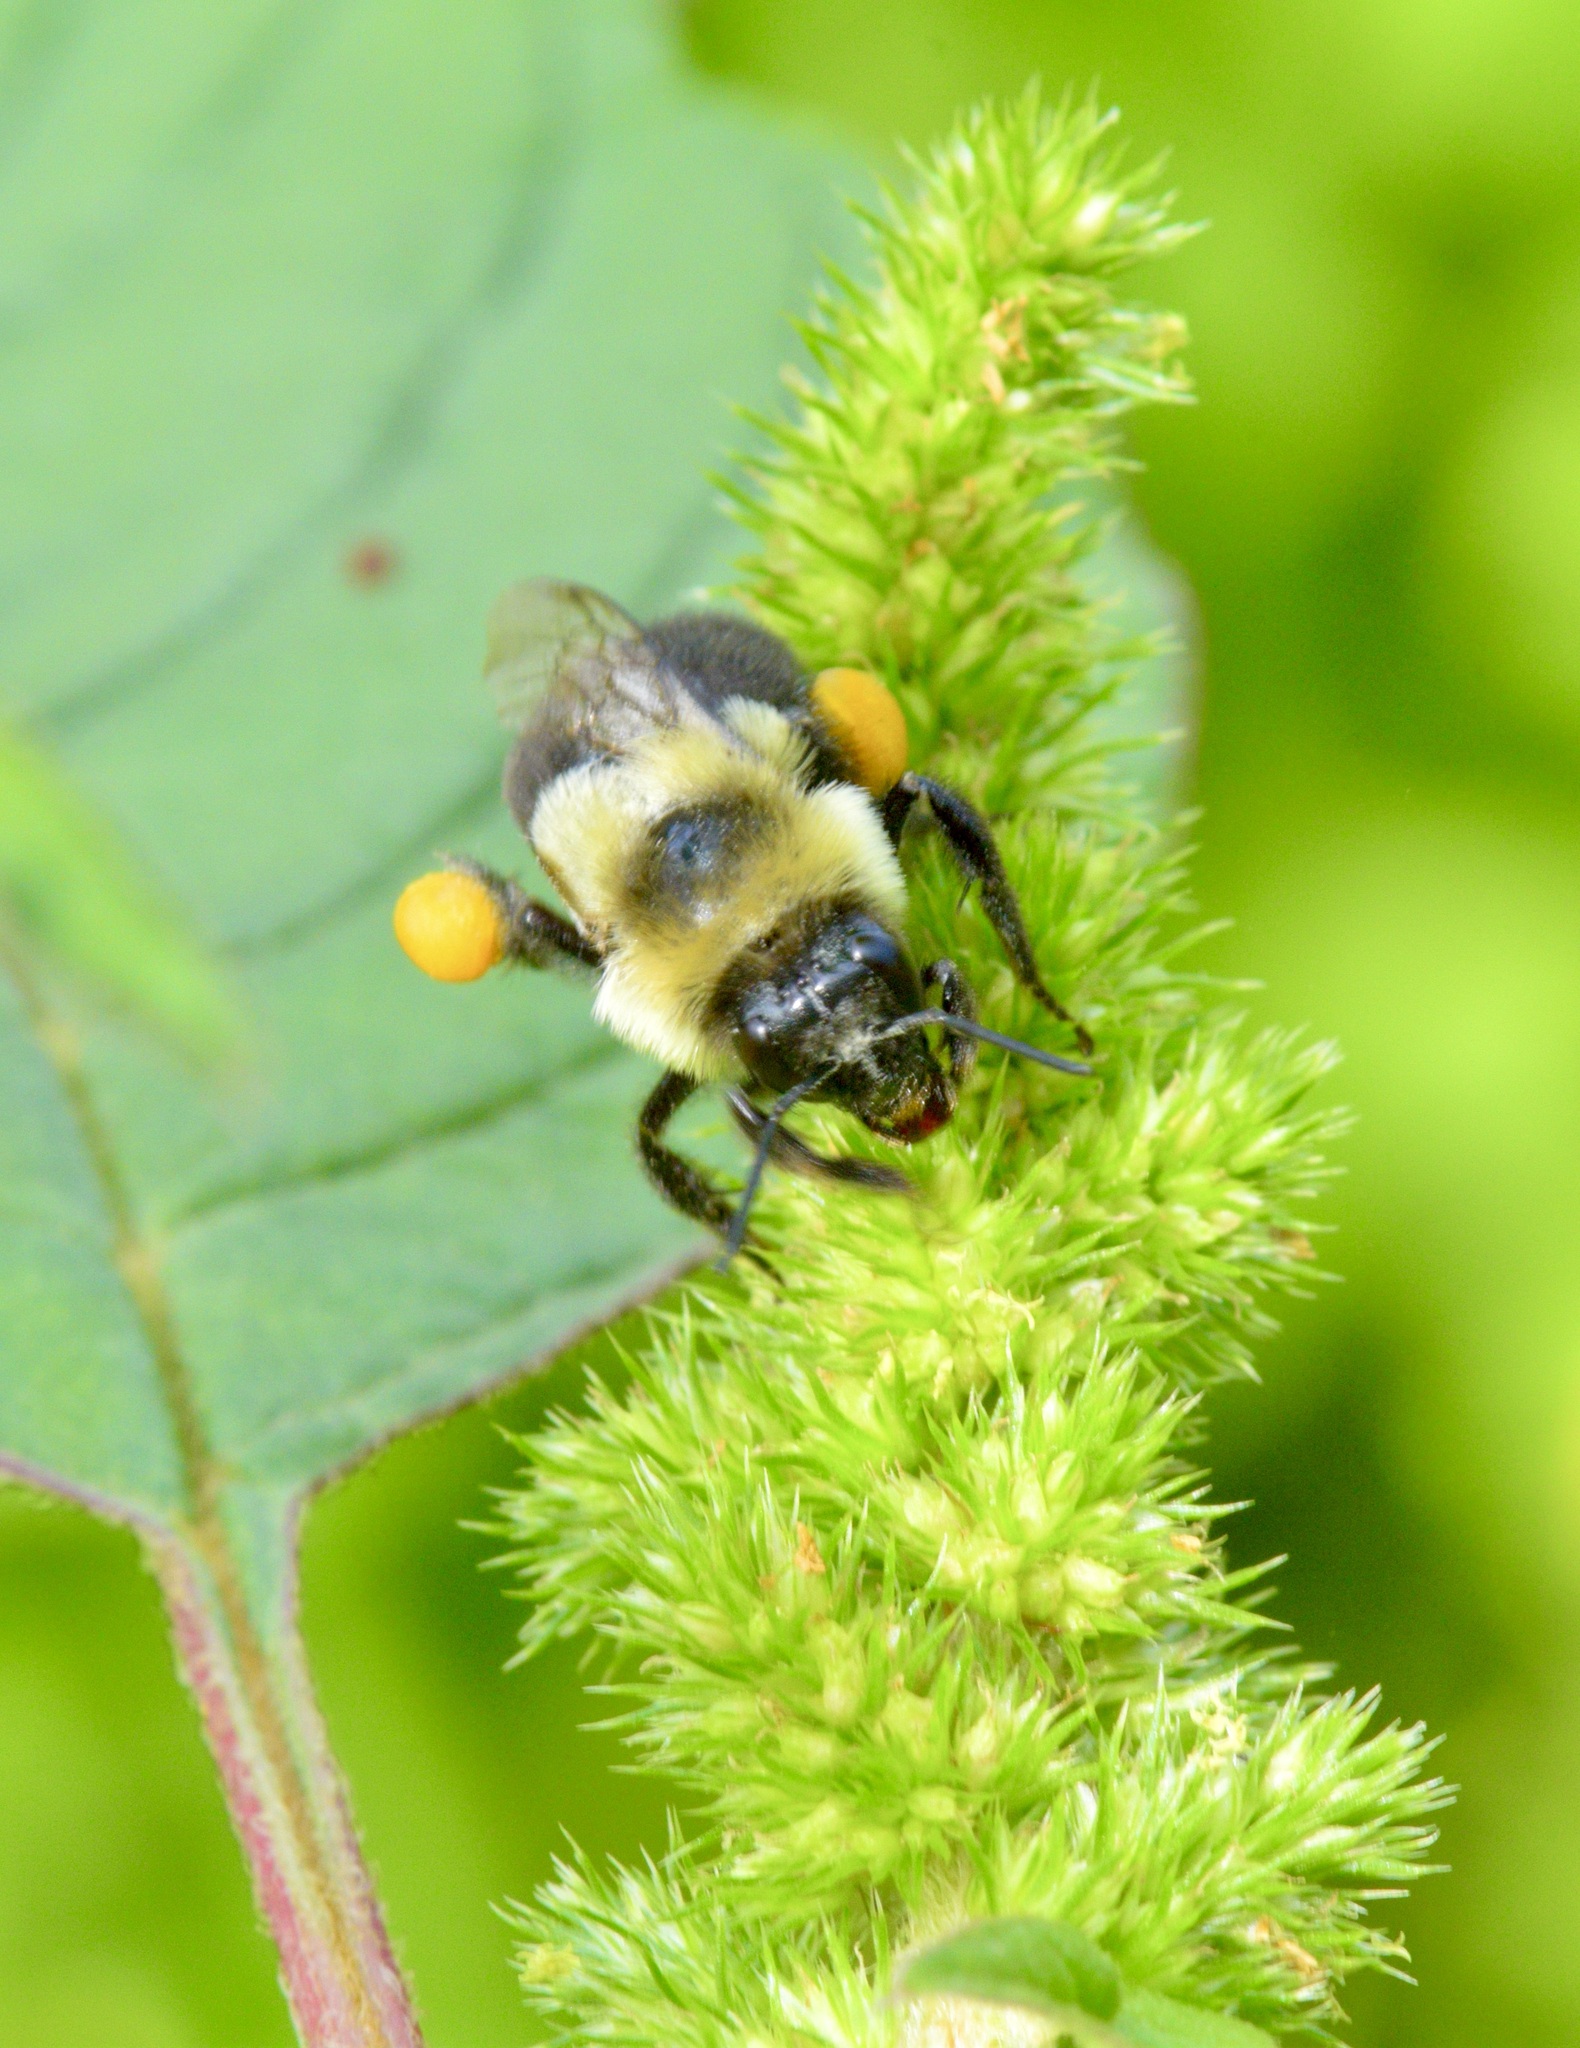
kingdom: Animalia
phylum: Arthropoda
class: Insecta
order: Hymenoptera
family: Apidae
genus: Bombus
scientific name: Bombus impatiens
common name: Common eastern bumble bee
